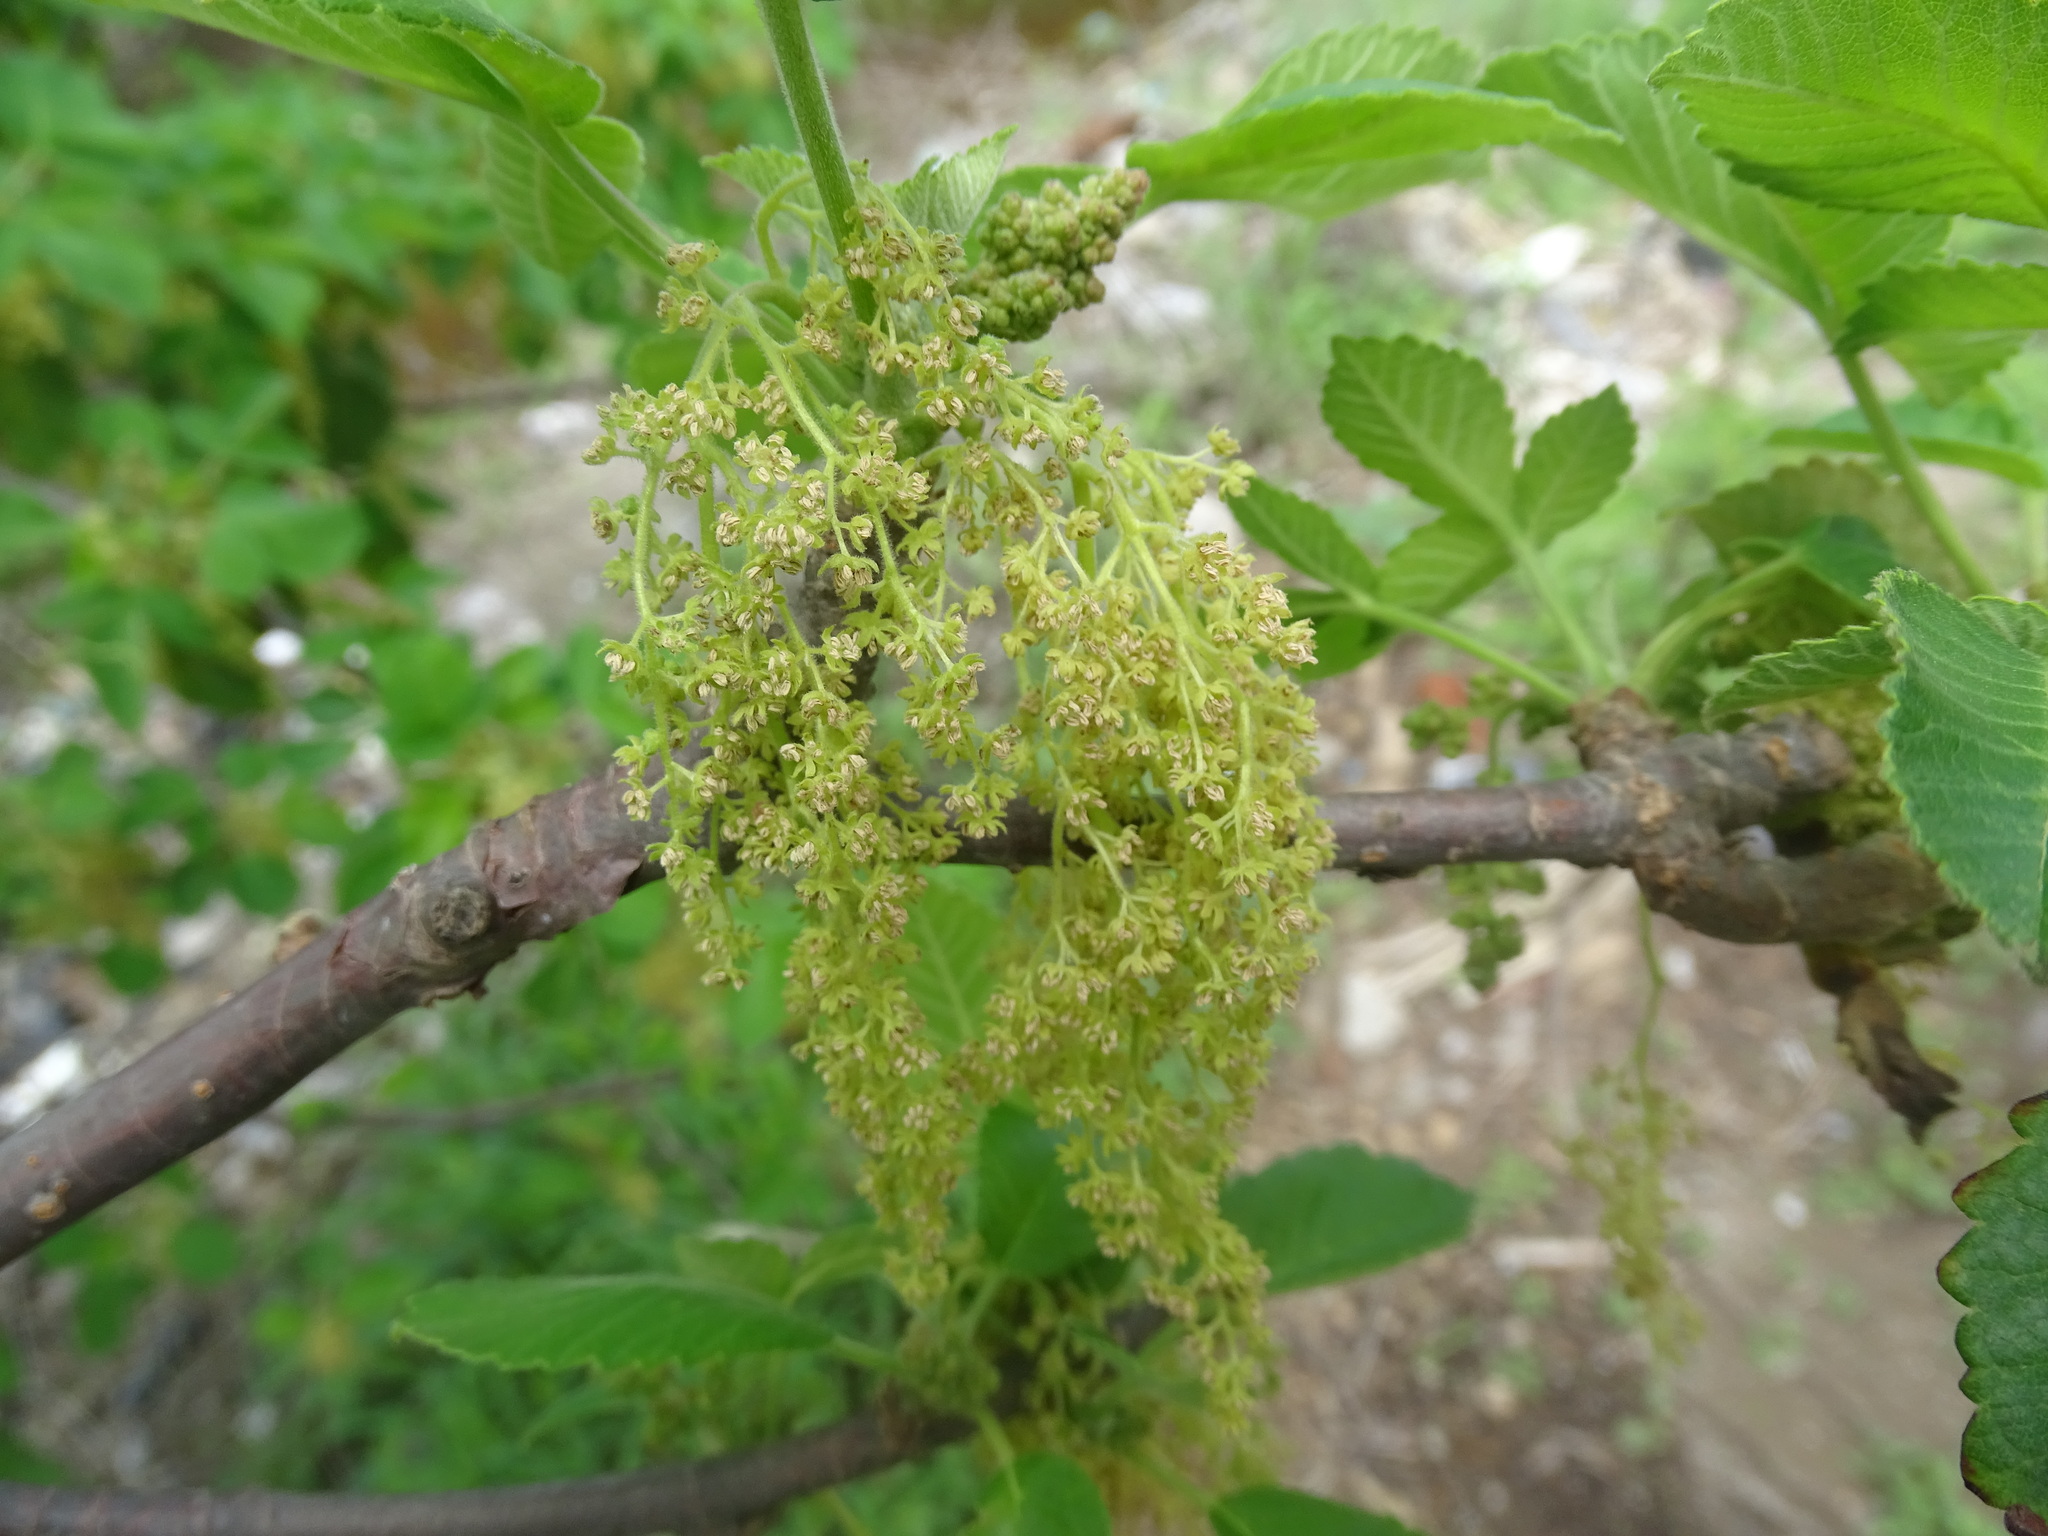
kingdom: Plantae
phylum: Tracheophyta
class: Magnoliopsida
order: Sapindales
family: Anacardiaceae
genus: Amphipterygium
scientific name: Amphipterygium simplicifolium
